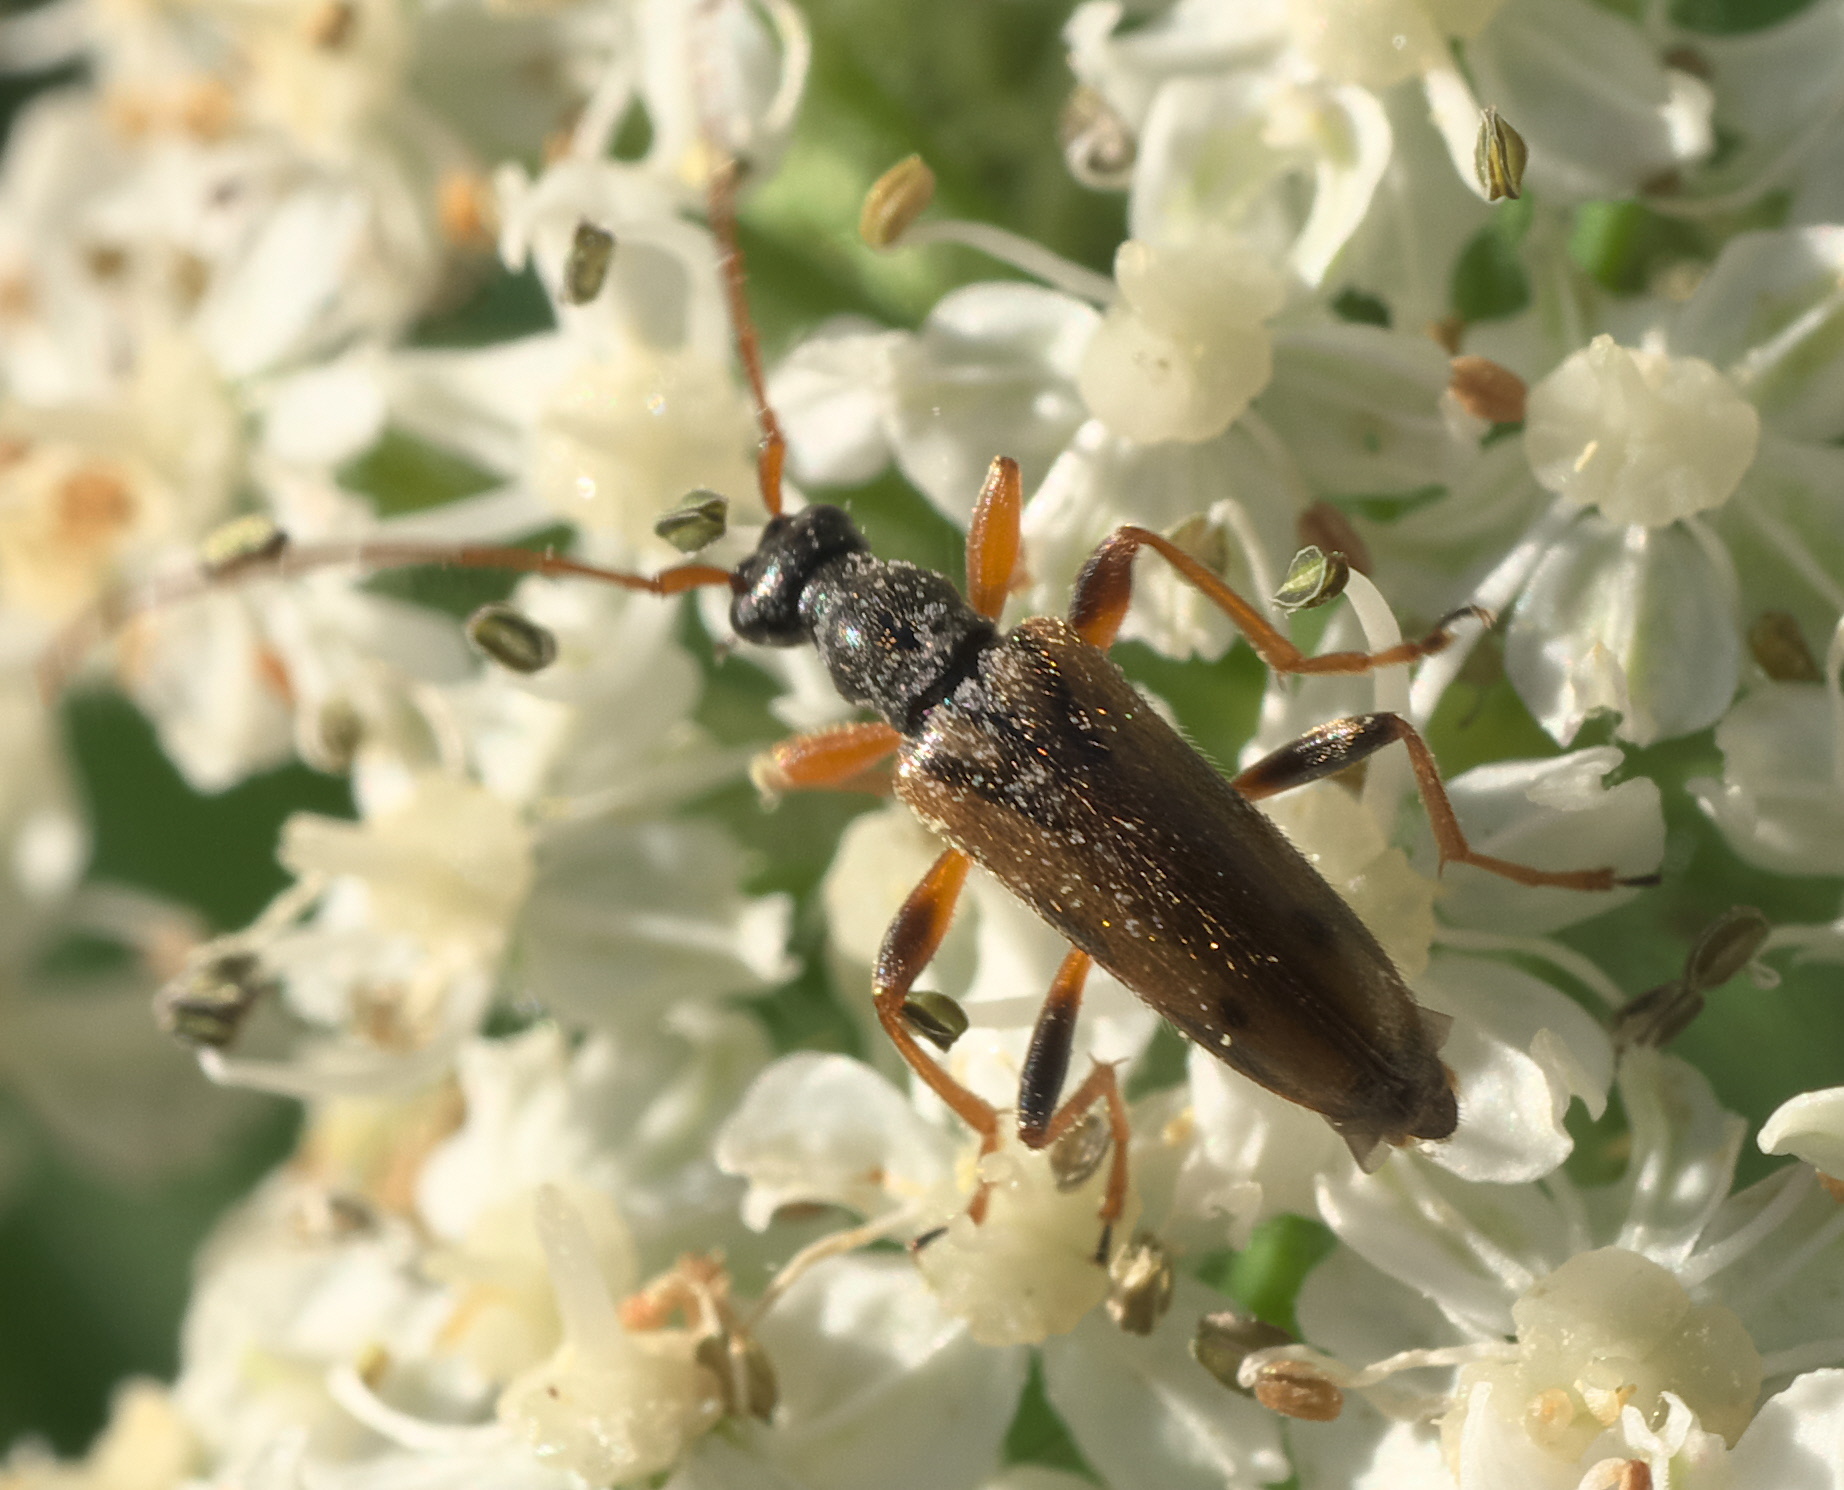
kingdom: Animalia
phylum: Arthropoda
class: Insecta
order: Coleoptera
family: Cerambycidae
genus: Pidonia
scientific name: Pidonia scripta
